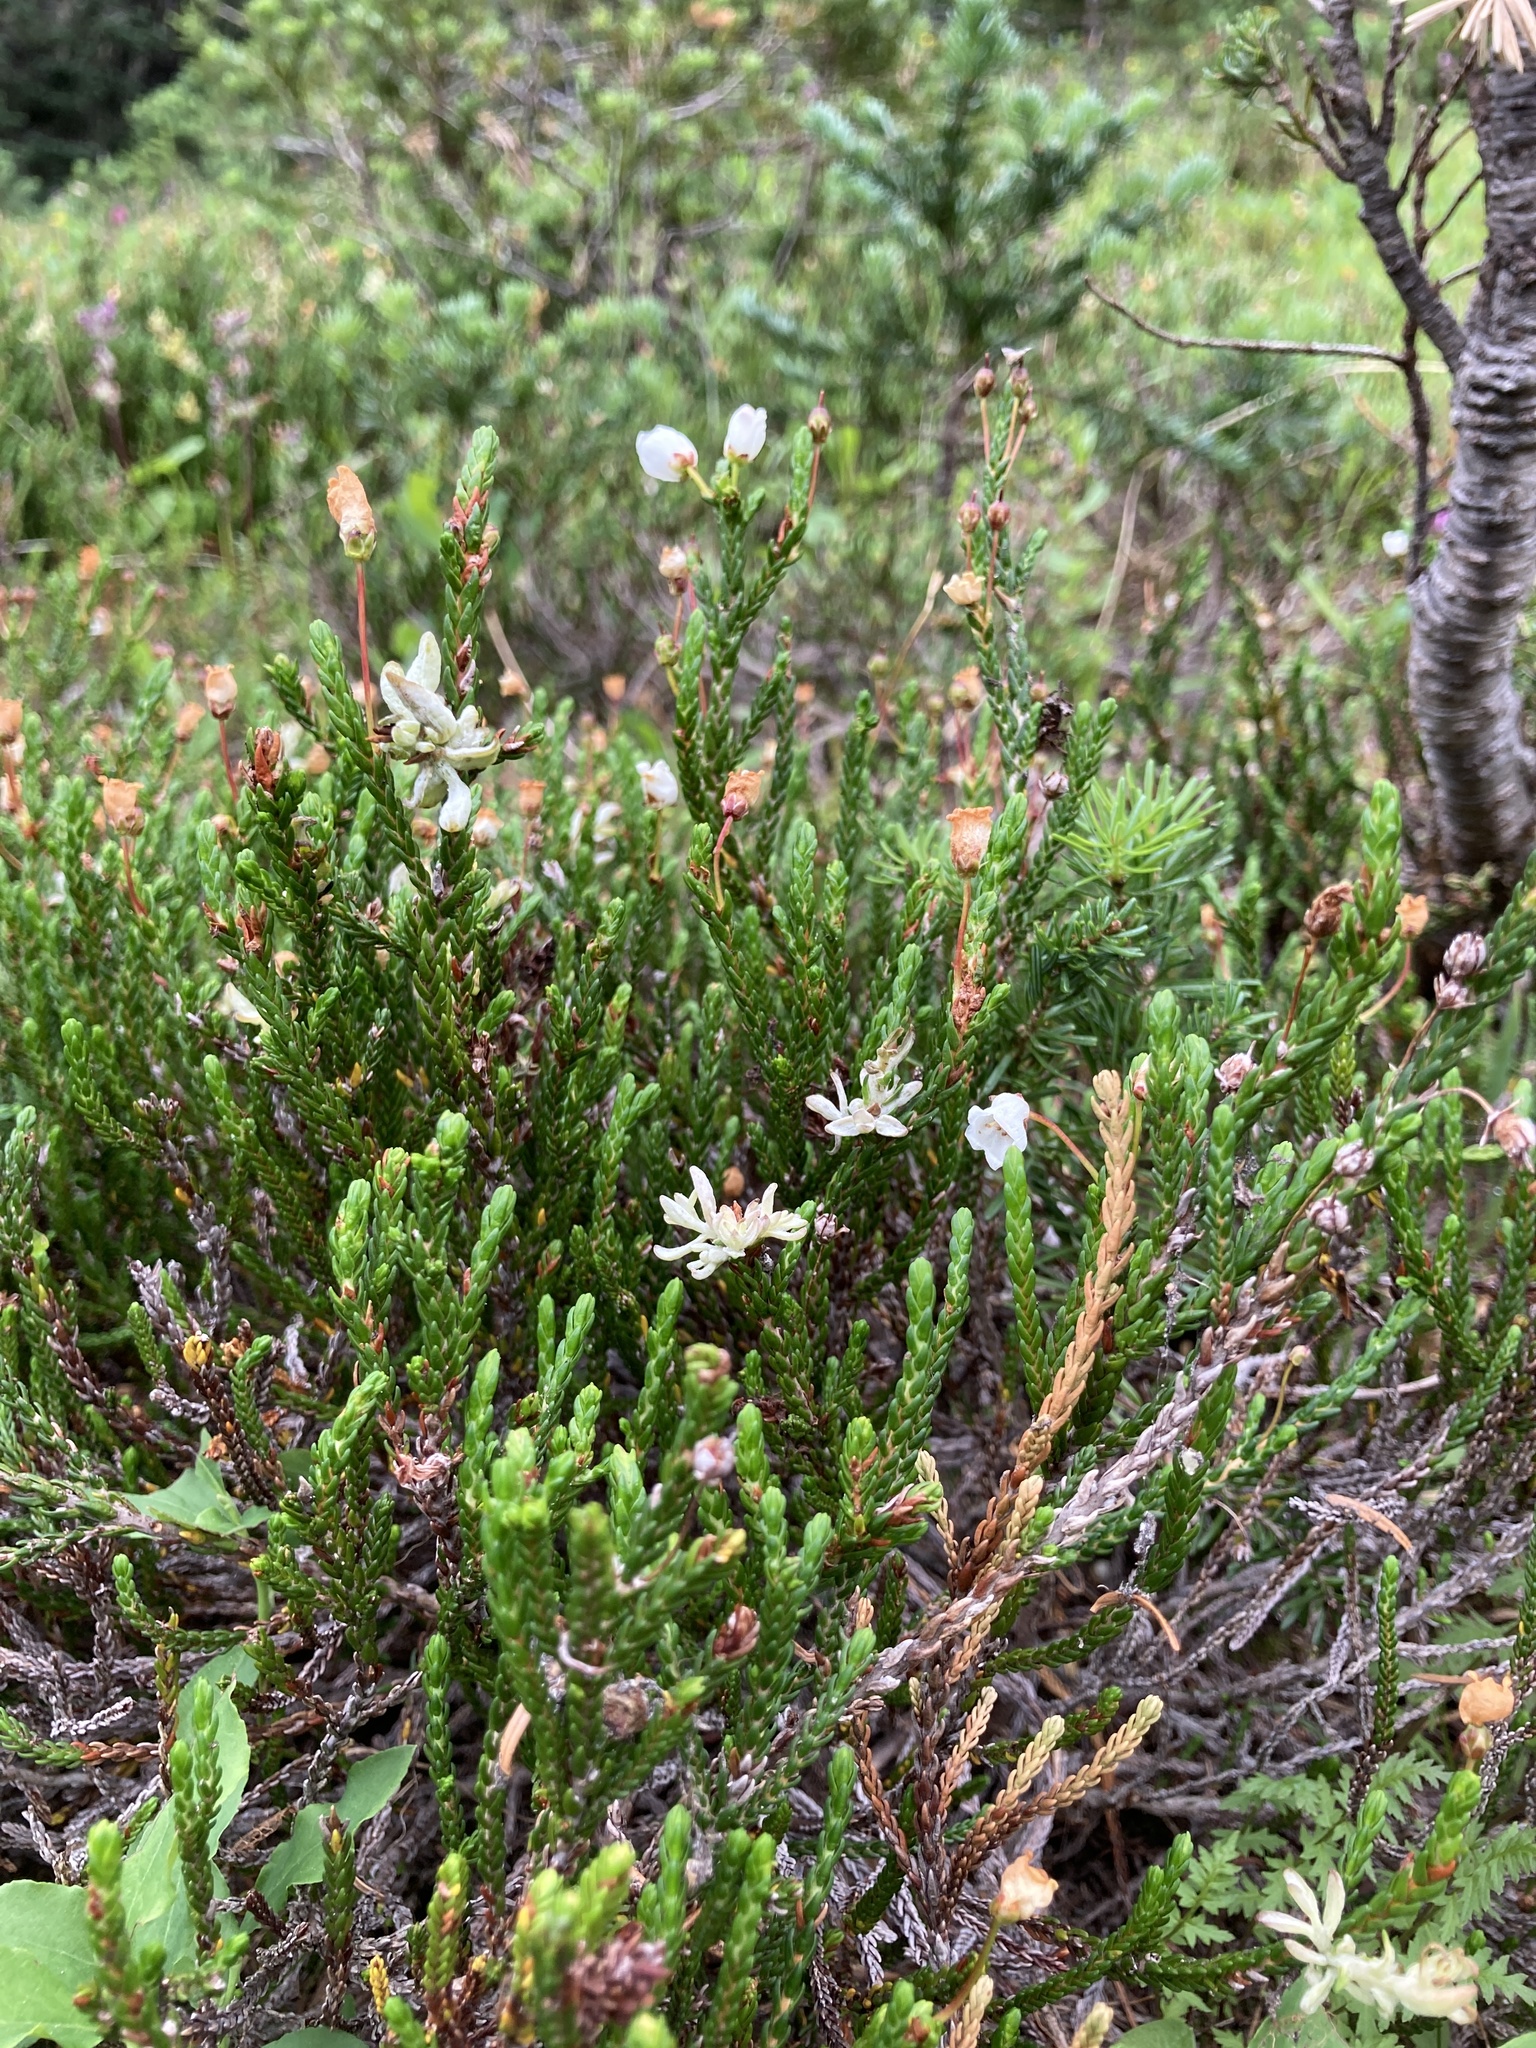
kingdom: Plantae
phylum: Tracheophyta
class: Magnoliopsida
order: Ericales
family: Ericaceae
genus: Cassiope
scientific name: Cassiope mertensiana
